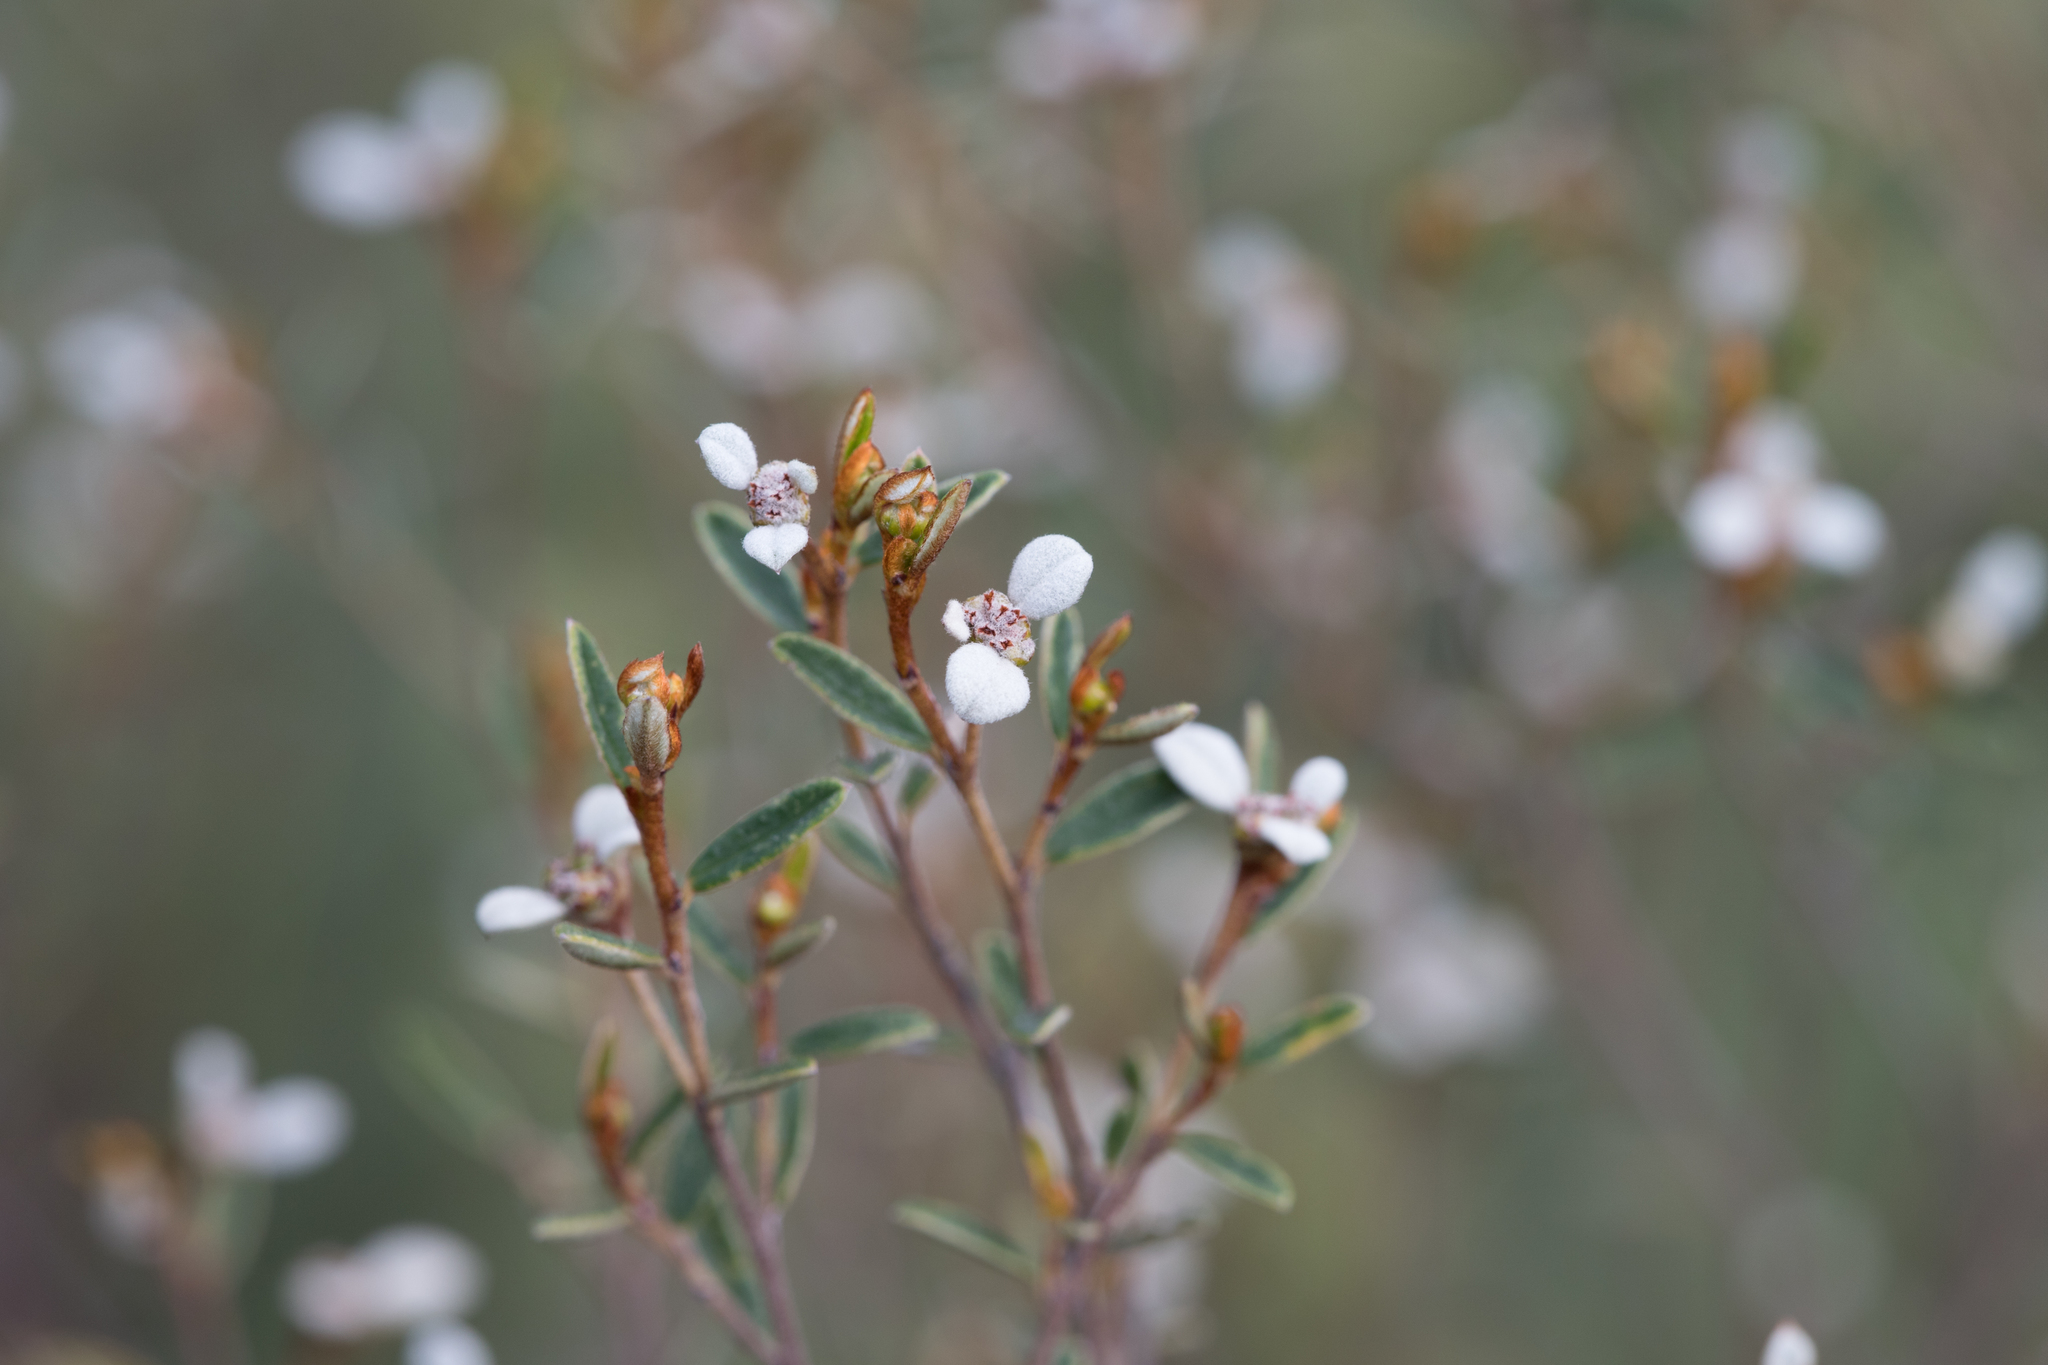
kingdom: Plantae
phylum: Tracheophyta
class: Magnoliopsida
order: Rosales
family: Rhamnaceae
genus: Spyridium
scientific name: Spyridium vexilliferum
